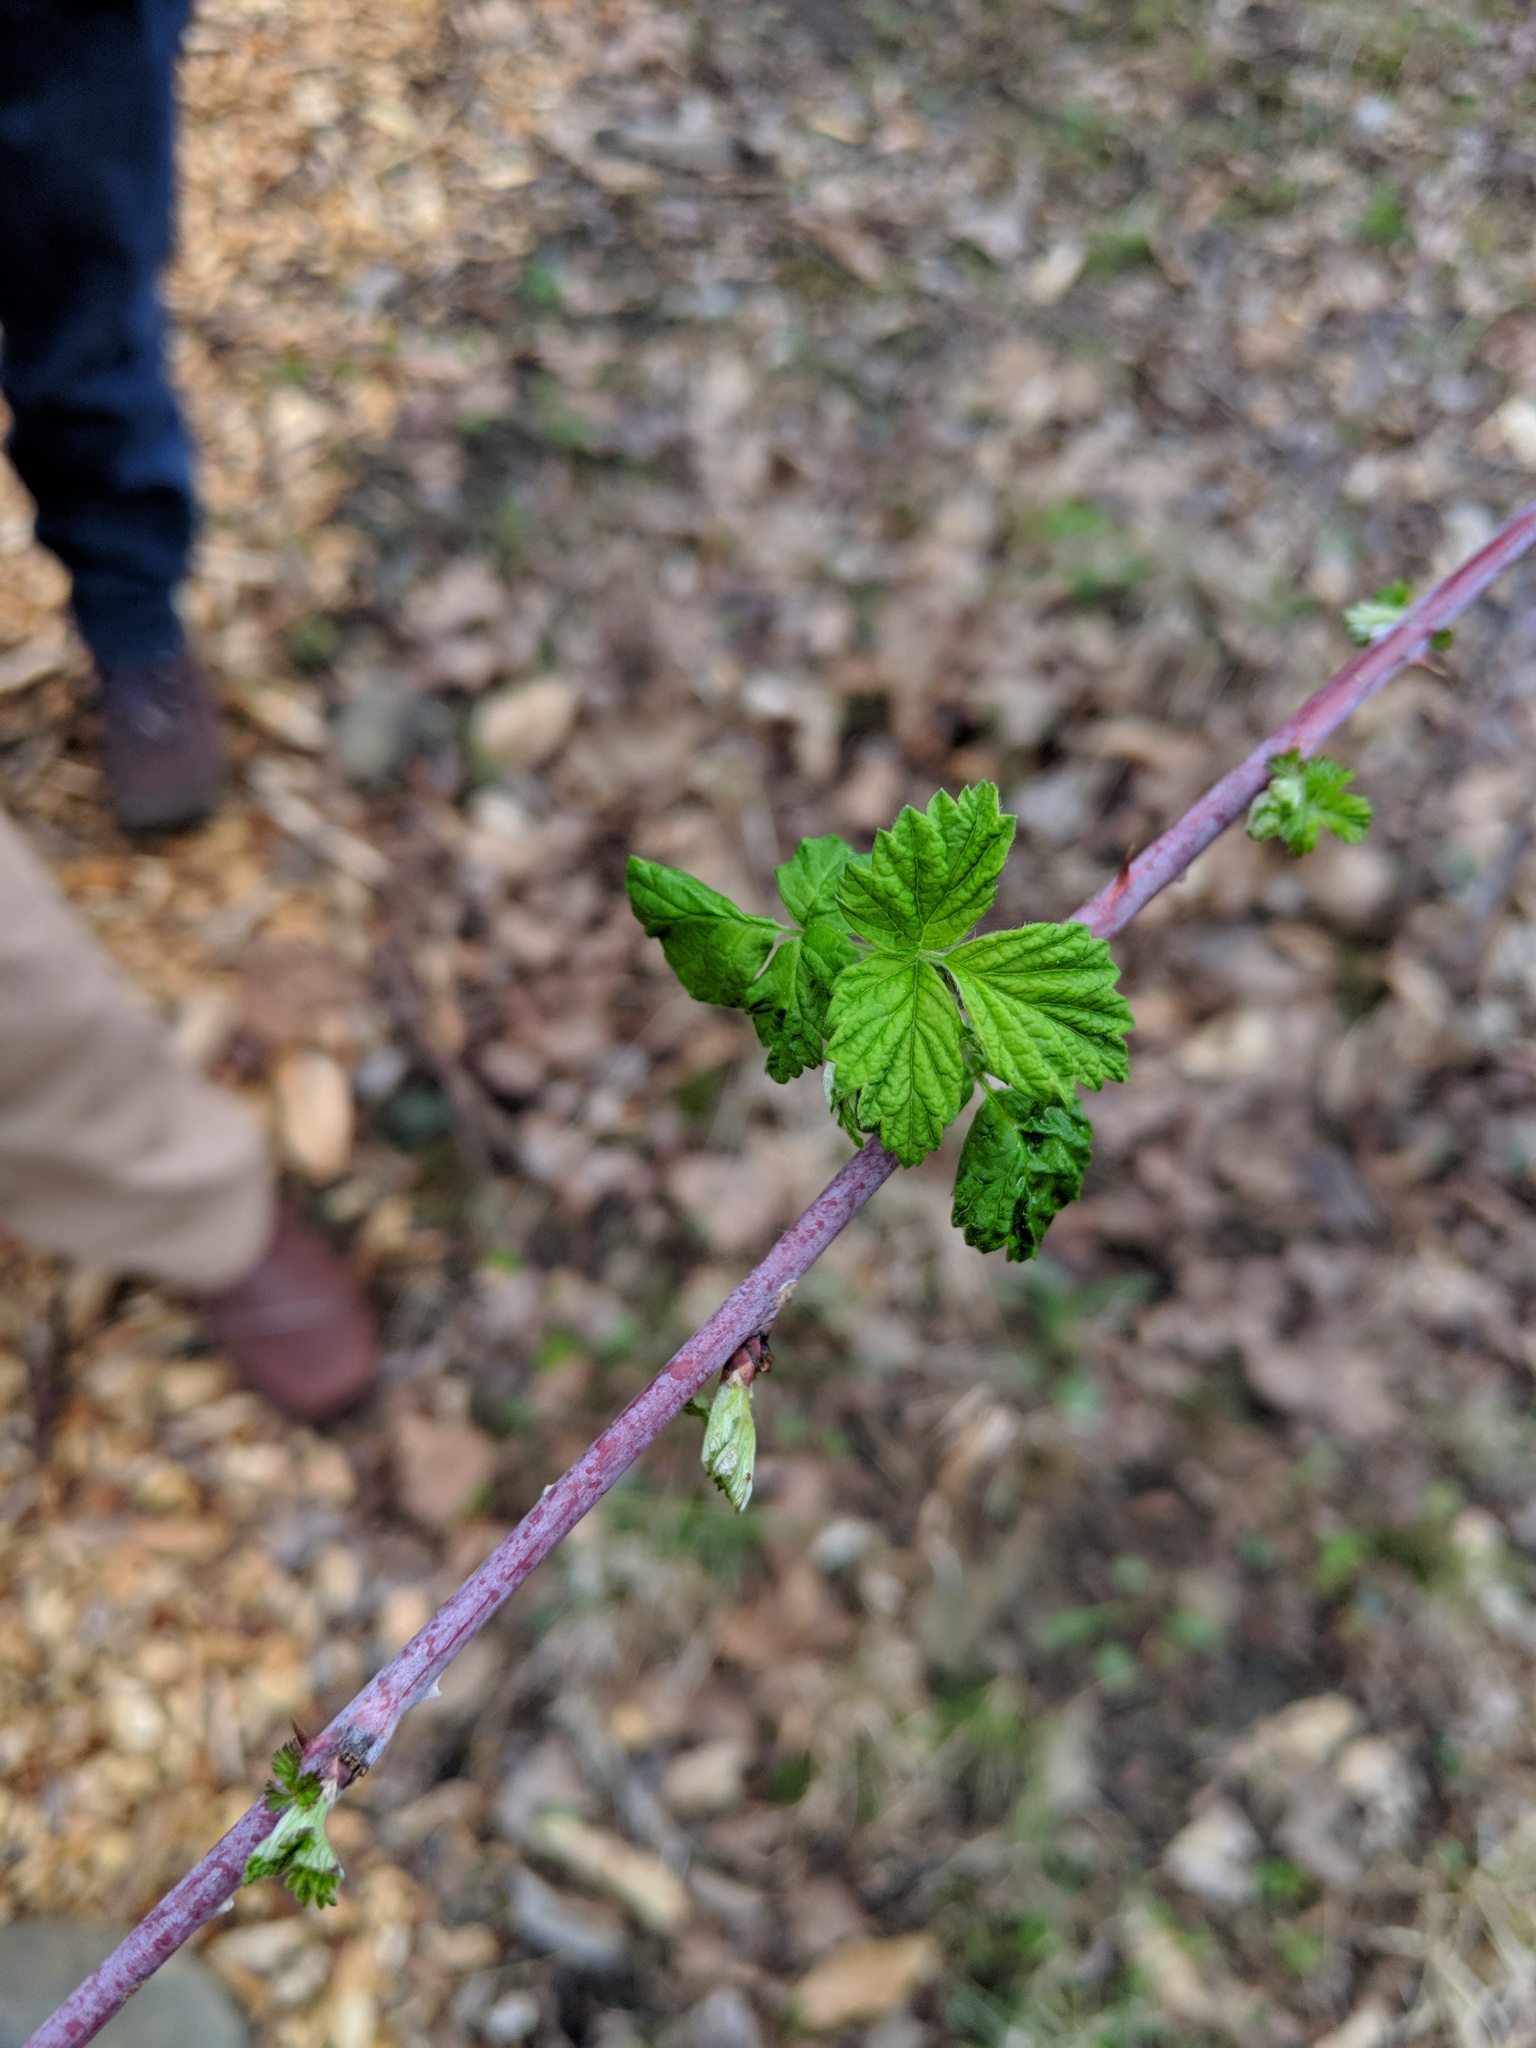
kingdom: Plantae
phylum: Tracheophyta
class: Magnoliopsida
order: Rosales
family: Rosaceae
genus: Rubus
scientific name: Rubus occidentalis
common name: Black raspberry
